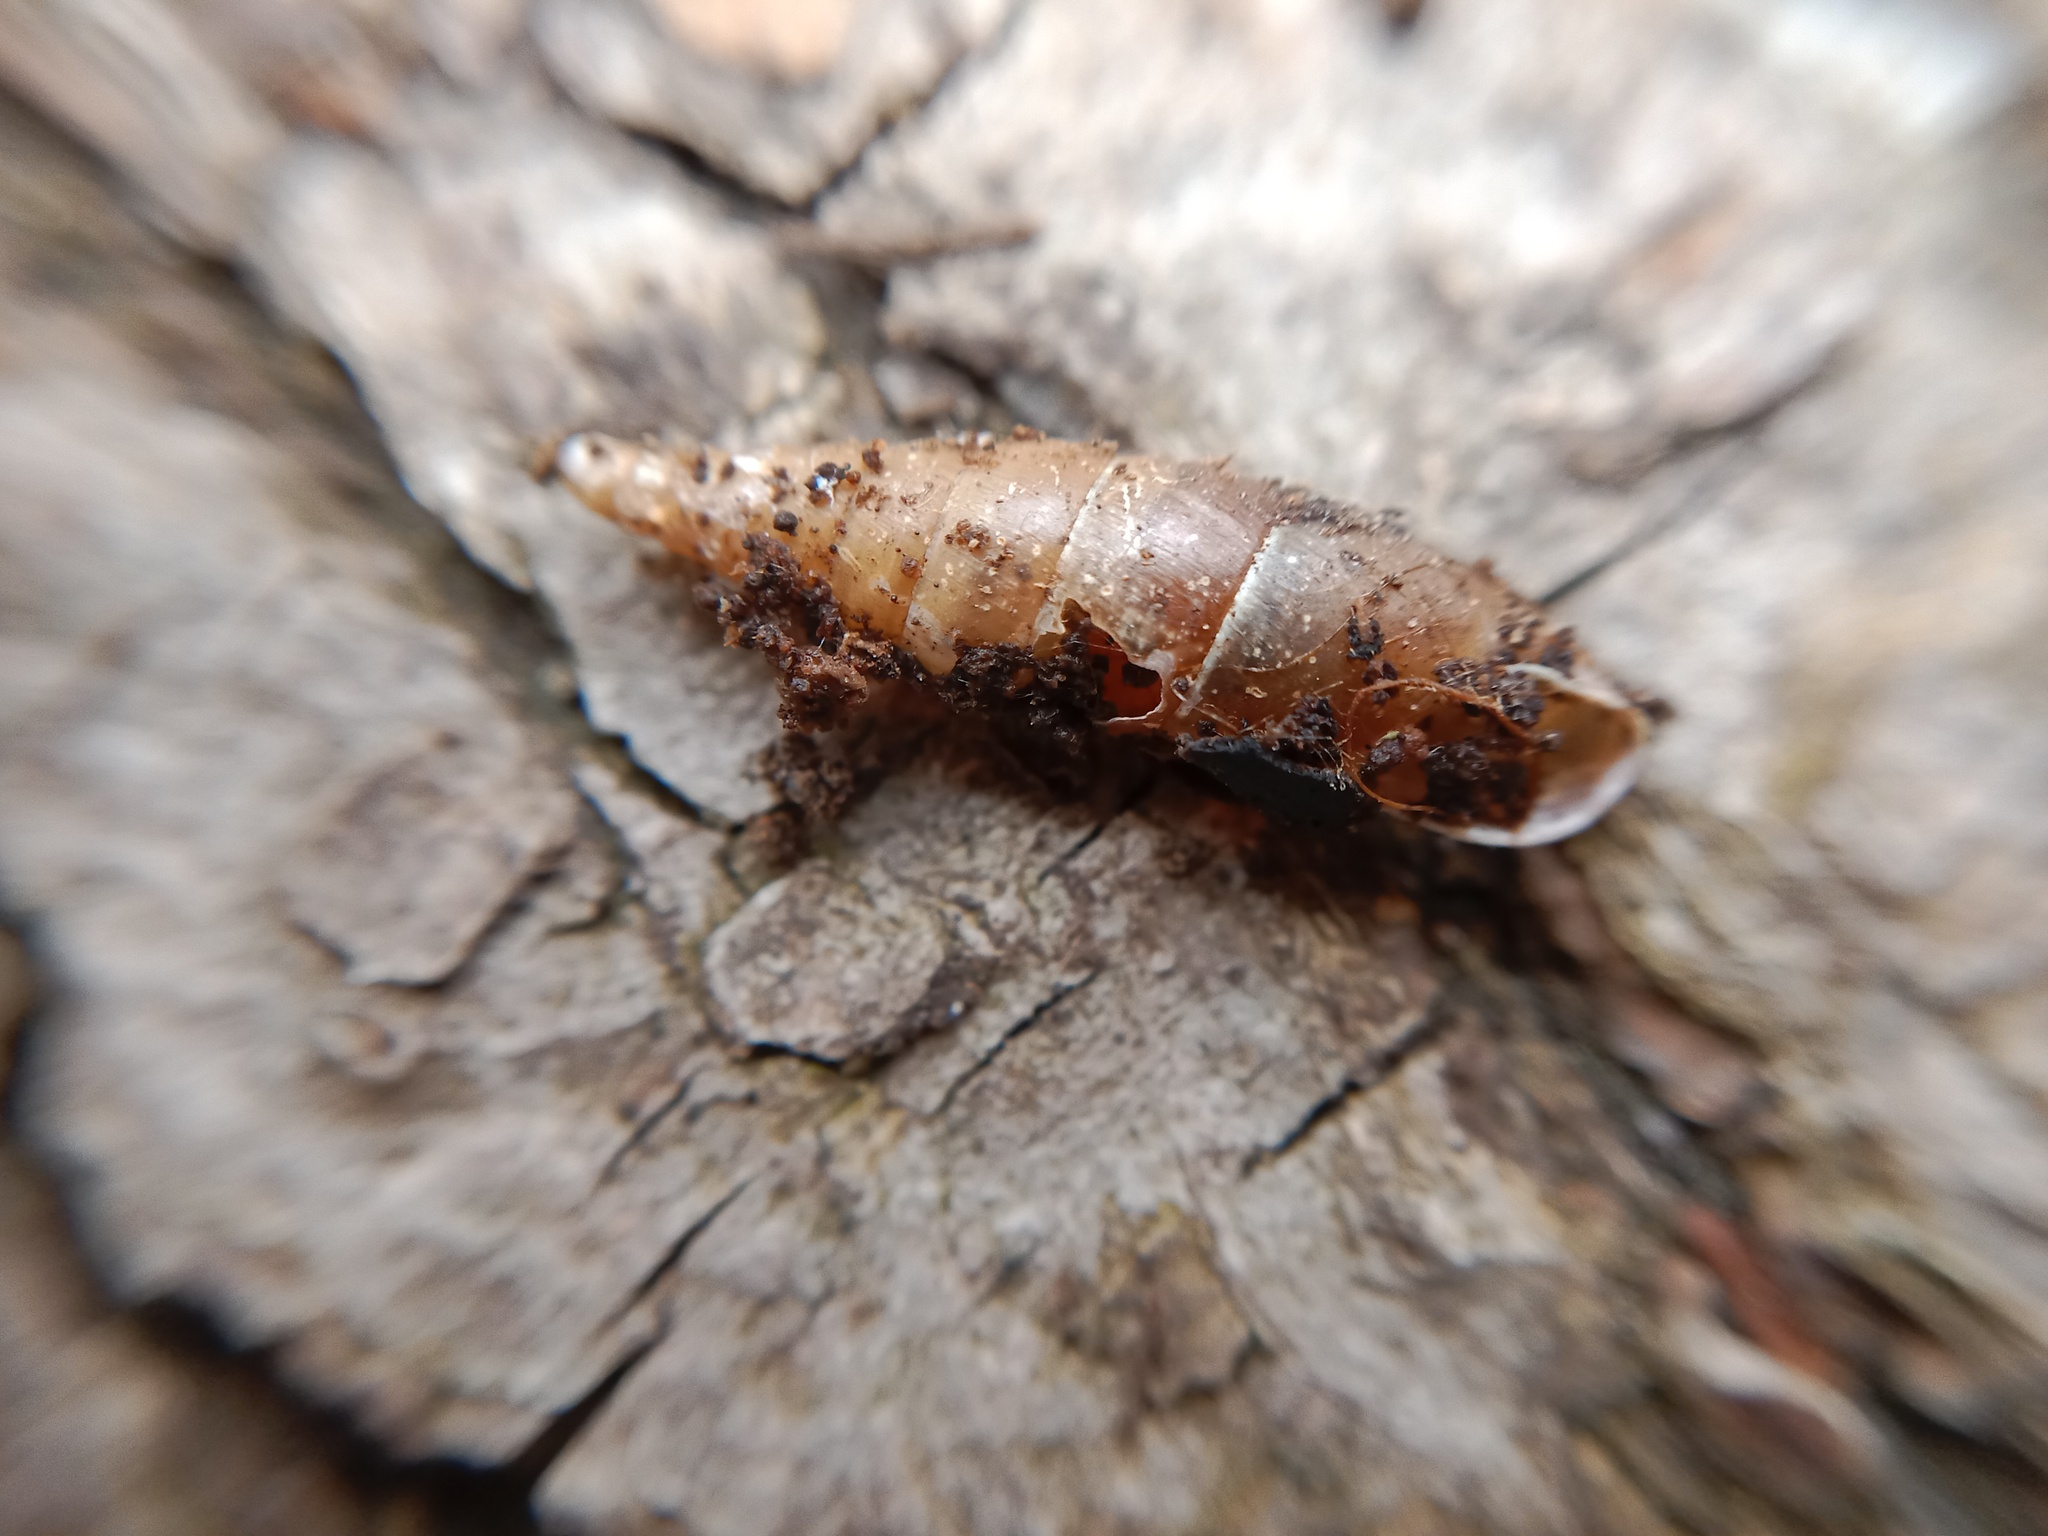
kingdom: Animalia
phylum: Mollusca
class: Gastropoda
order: Stylommatophora
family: Clausiliidae
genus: Cochlodina
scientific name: Cochlodina laminata
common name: Plaited door snail
